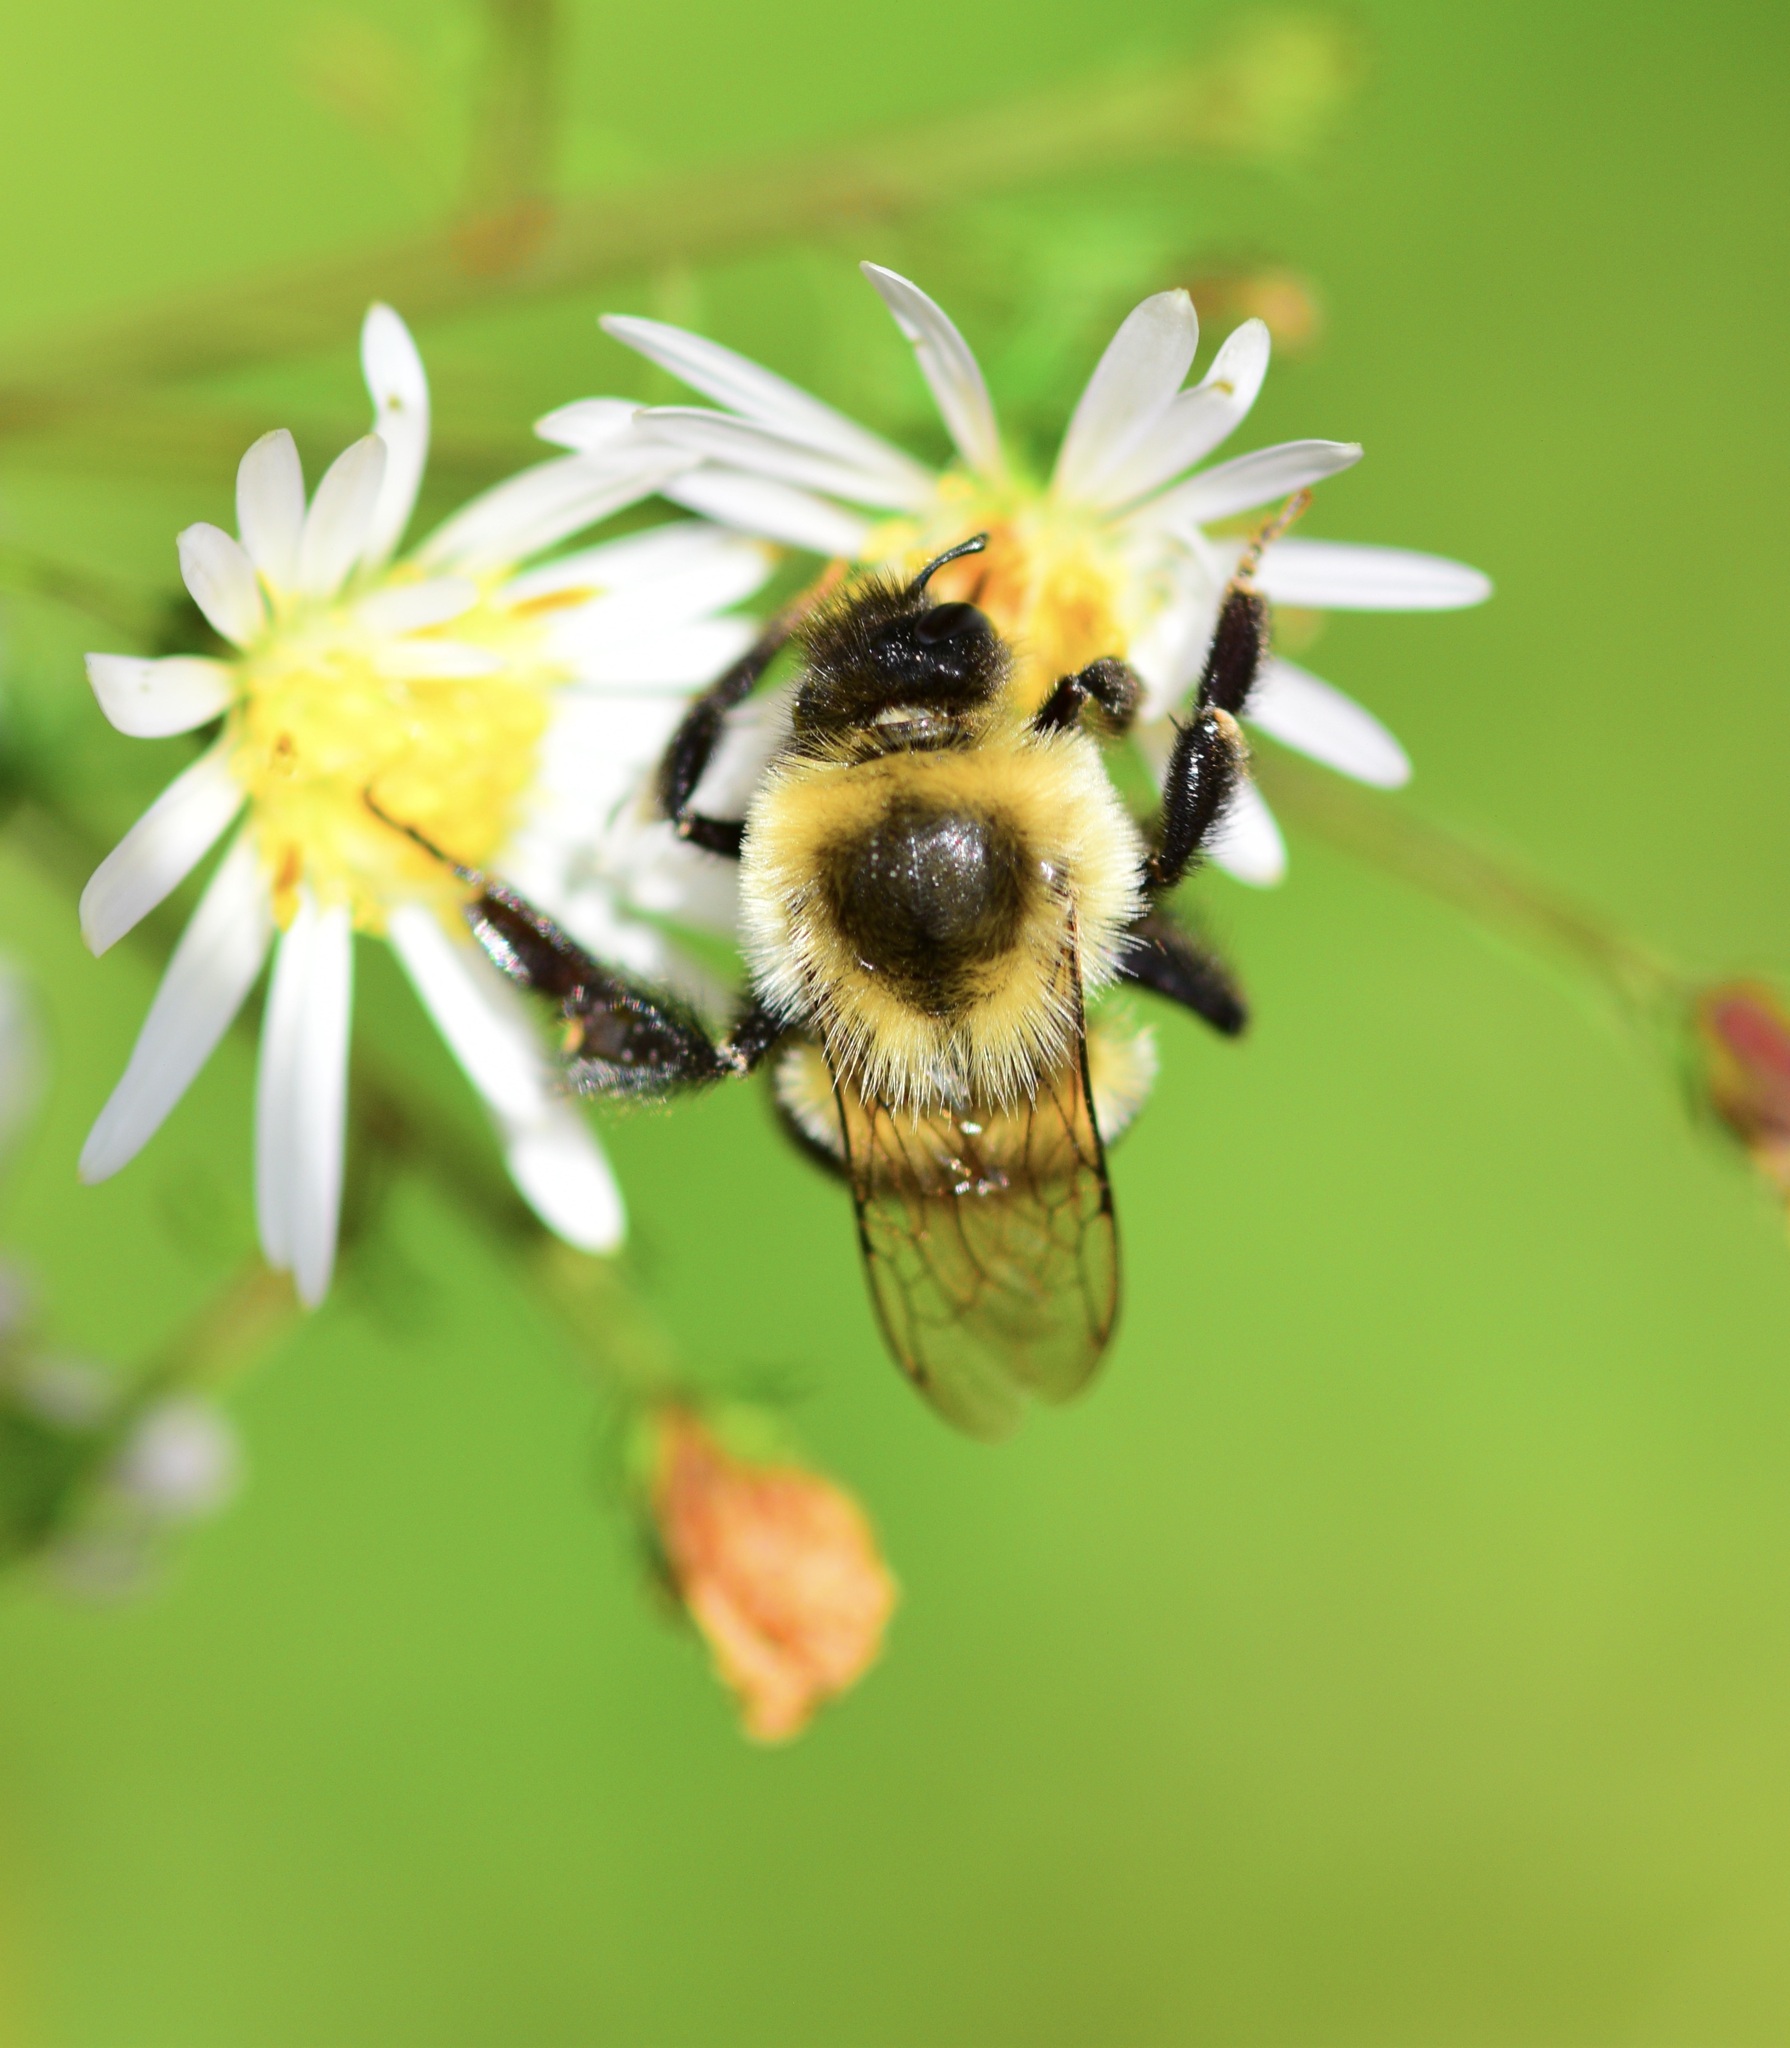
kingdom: Animalia
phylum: Arthropoda
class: Insecta
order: Hymenoptera
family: Apidae
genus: Bombus
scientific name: Bombus impatiens
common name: Common eastern bumble bee
